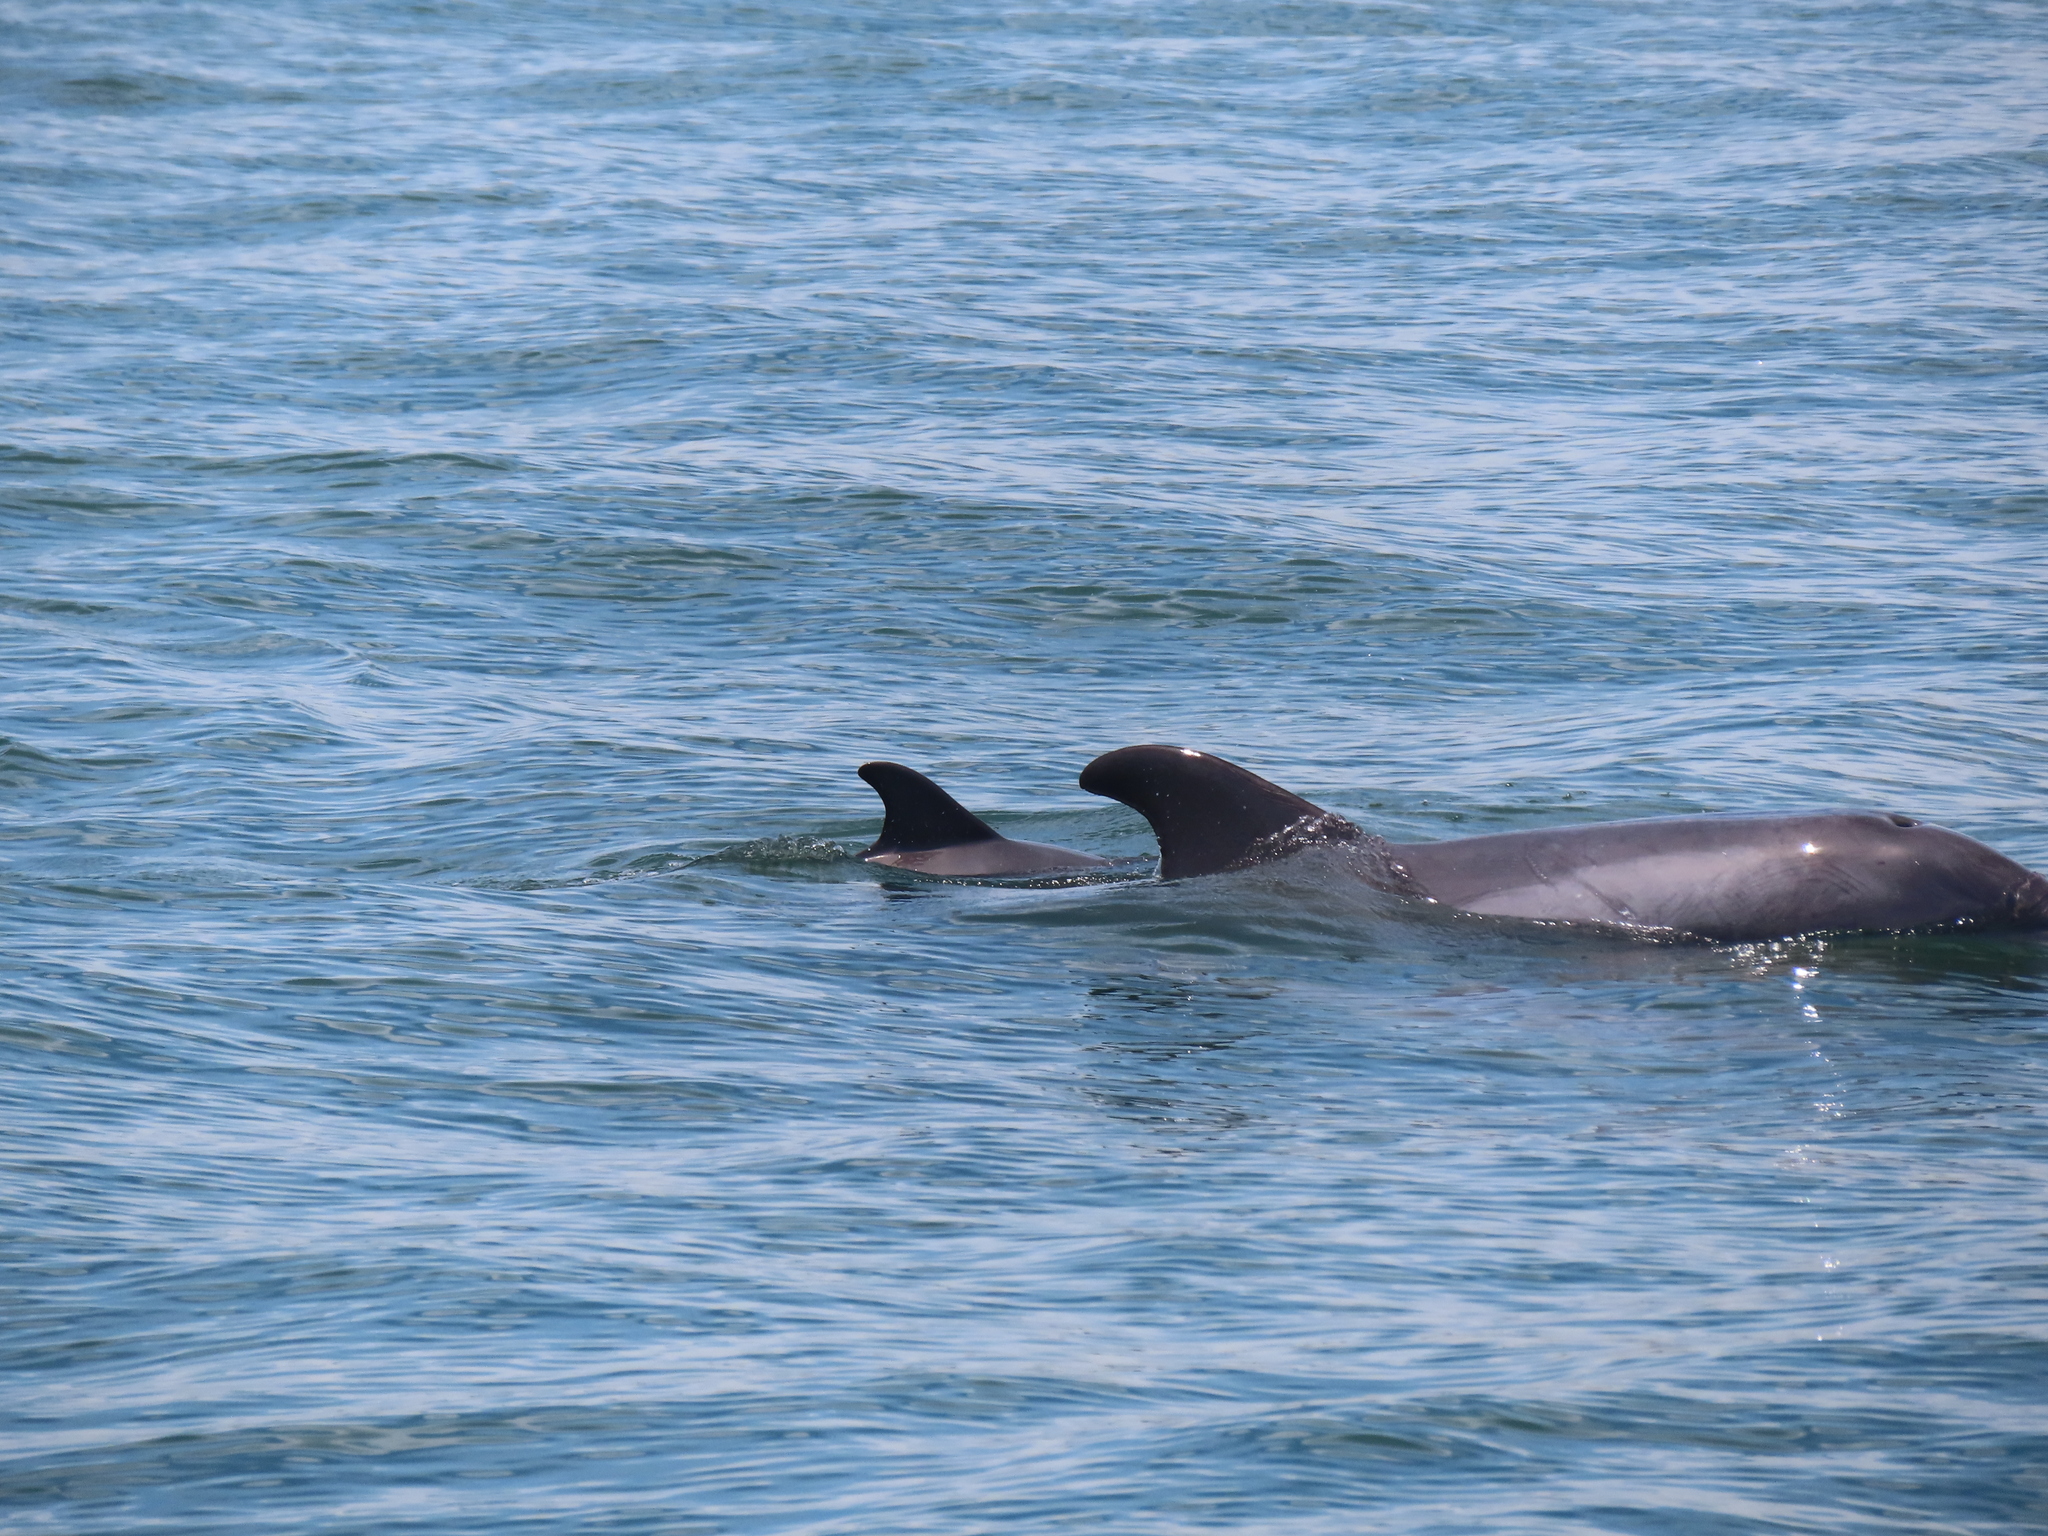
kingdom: Animalia
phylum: Chordata
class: Mammalia
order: Cetacea
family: Delphinidae
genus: Tursiops
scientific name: Tursiops truncatus
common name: Bottlenose dolphin
